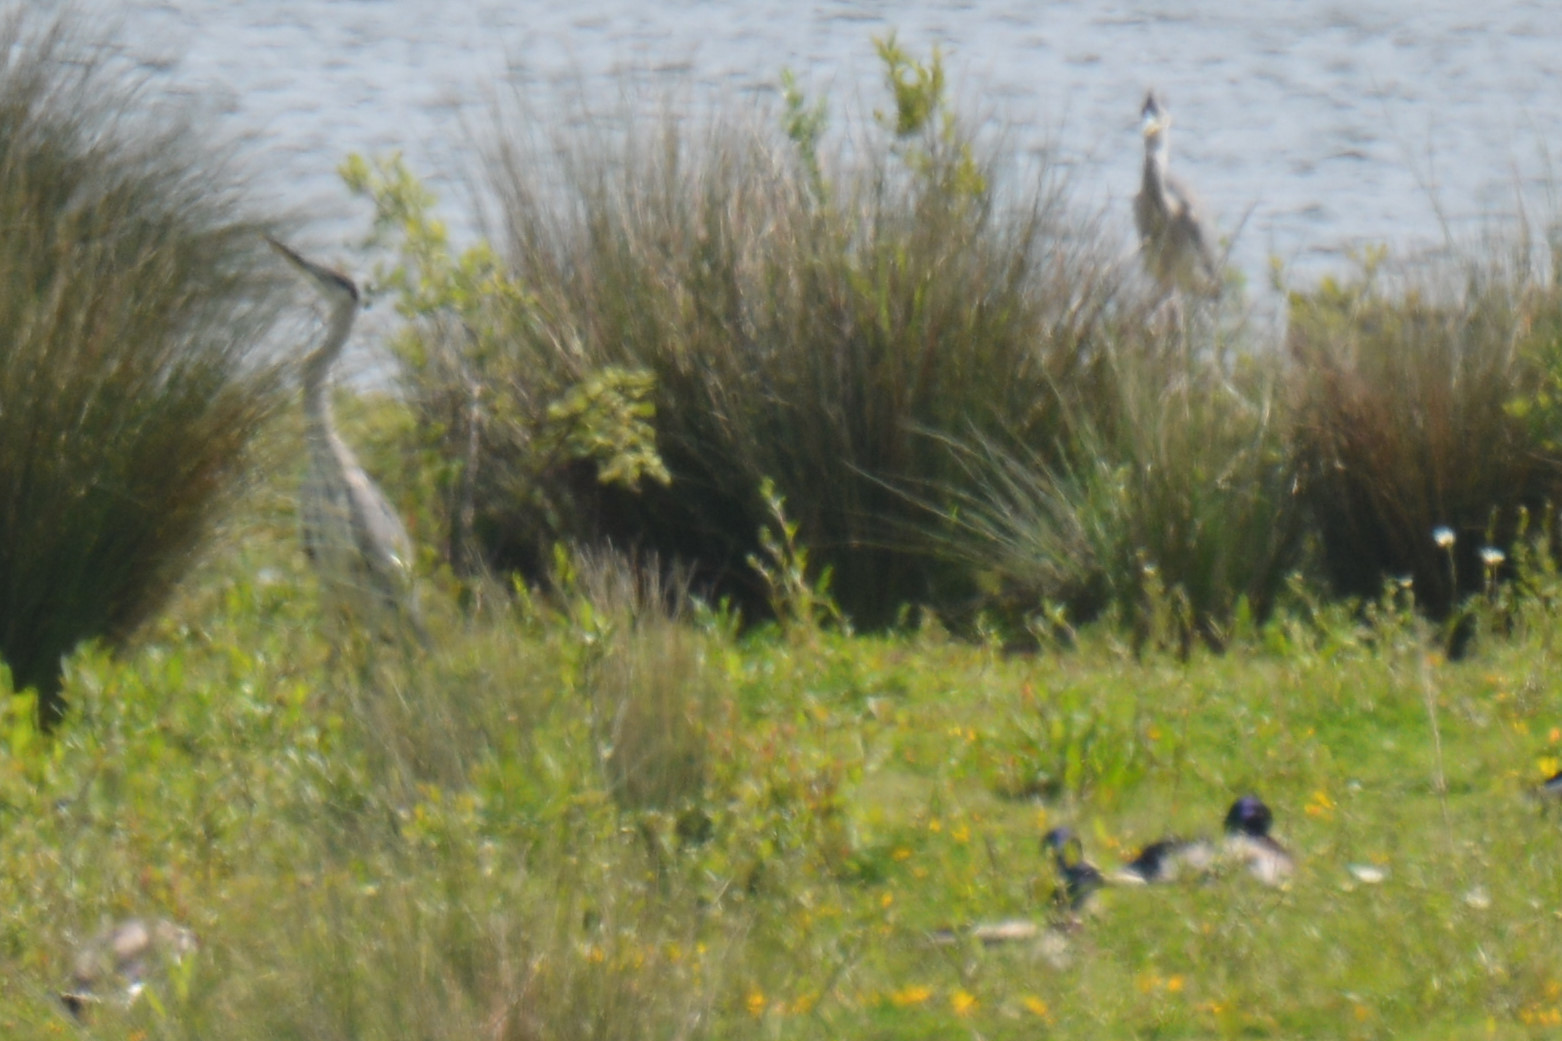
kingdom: Animalia
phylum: Chordata
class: Aves
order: Pelecaniformes
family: Ardeidae
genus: Ardea
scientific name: Ardea cinerea
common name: Grey heron
